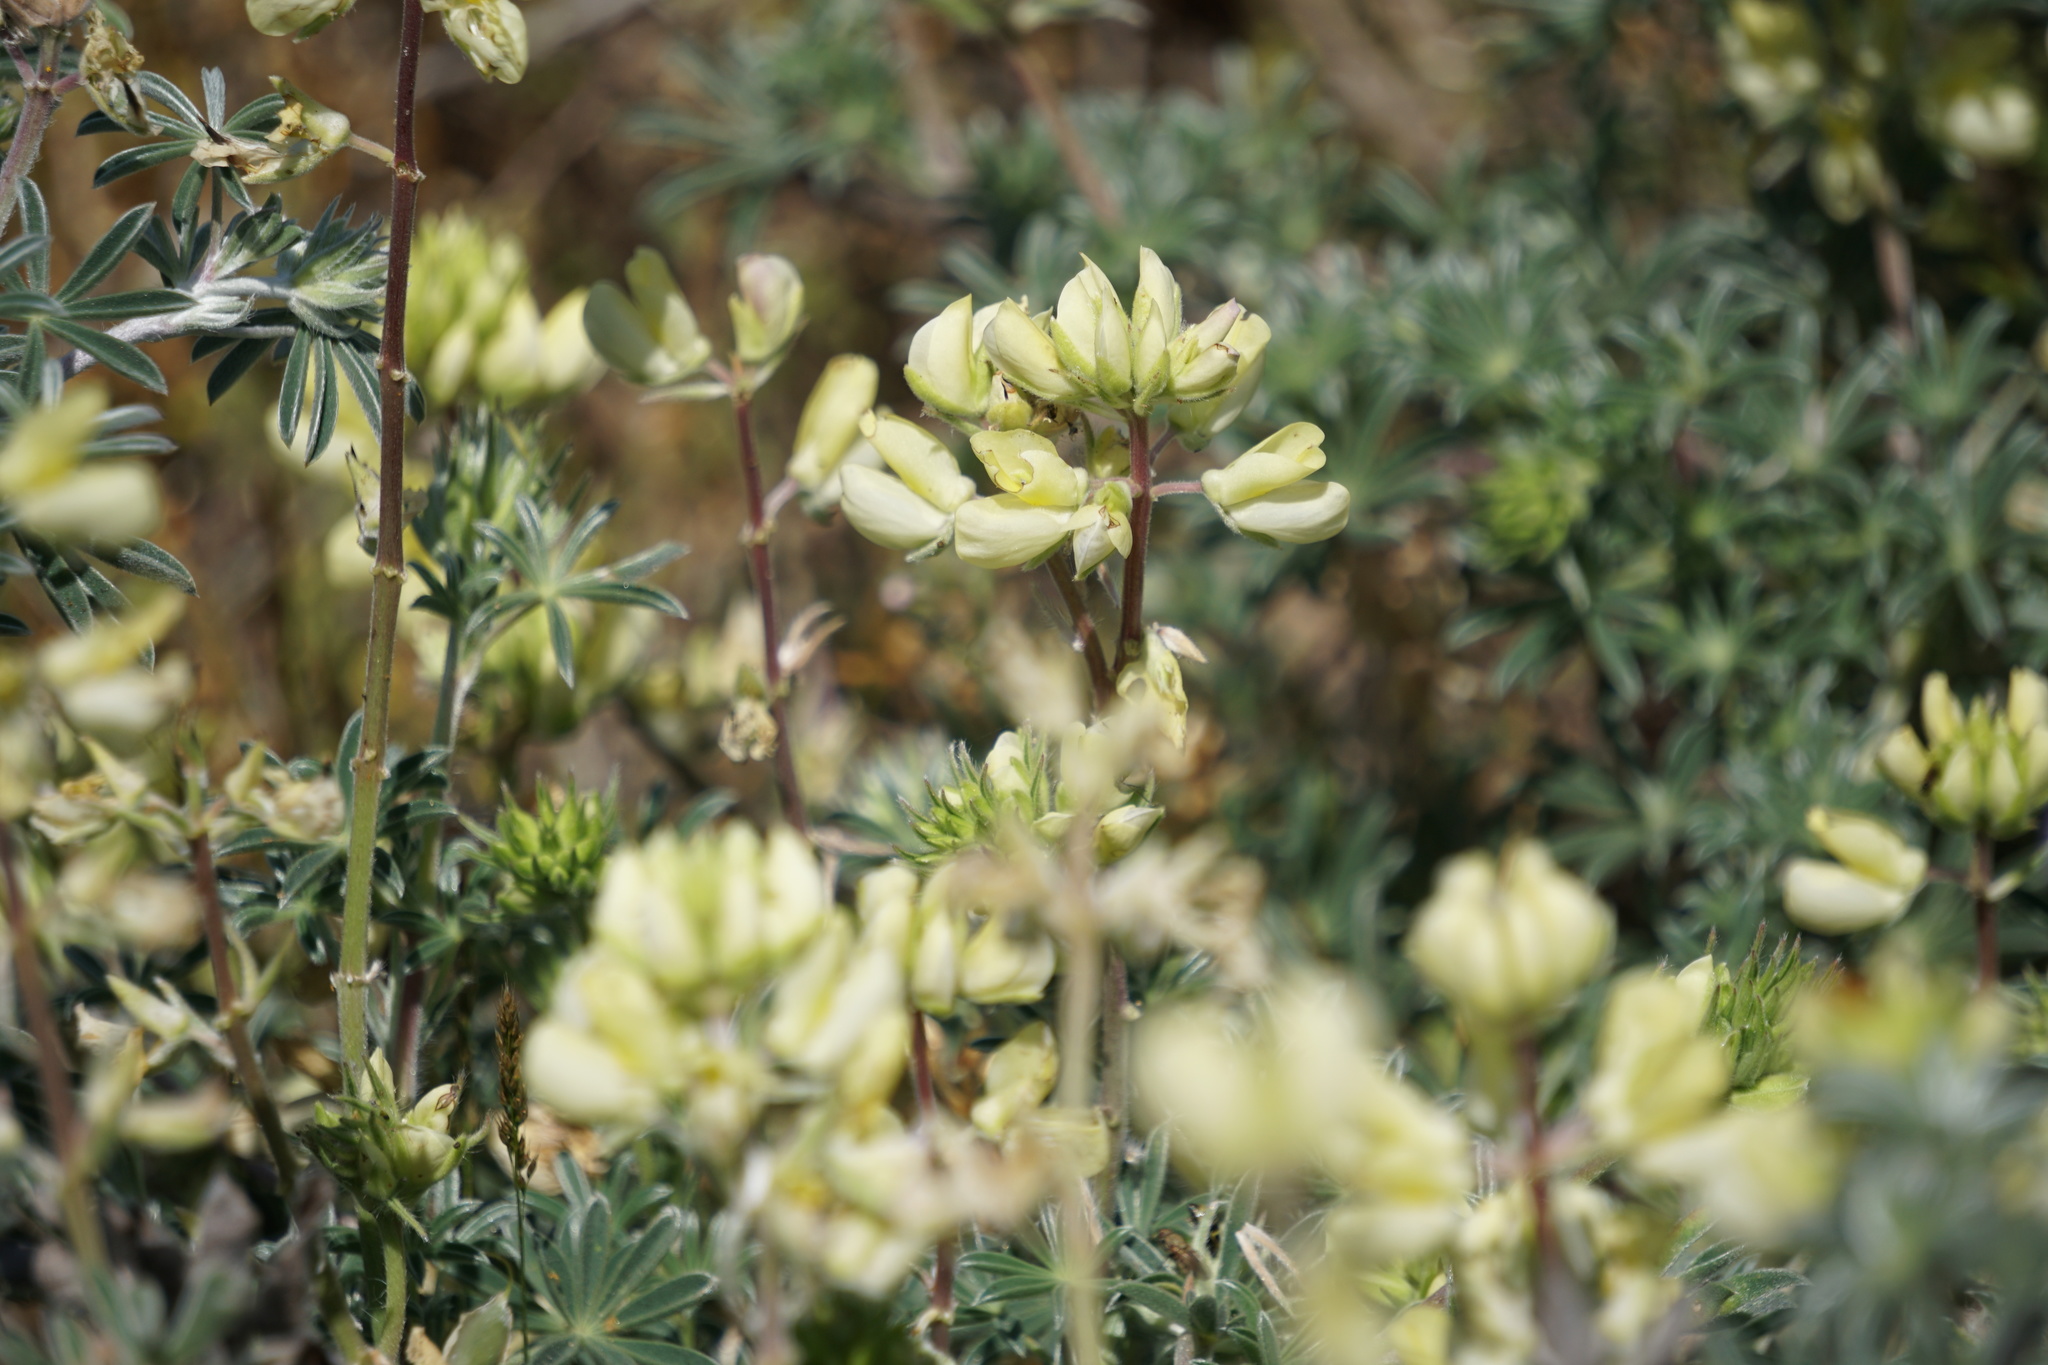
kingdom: Plantae
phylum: Tracheophyta
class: Magnoliopsida
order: Fabales
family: Fabaceae
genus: Lupinus
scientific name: Lupinus arboreus
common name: Yellow bush lupine
